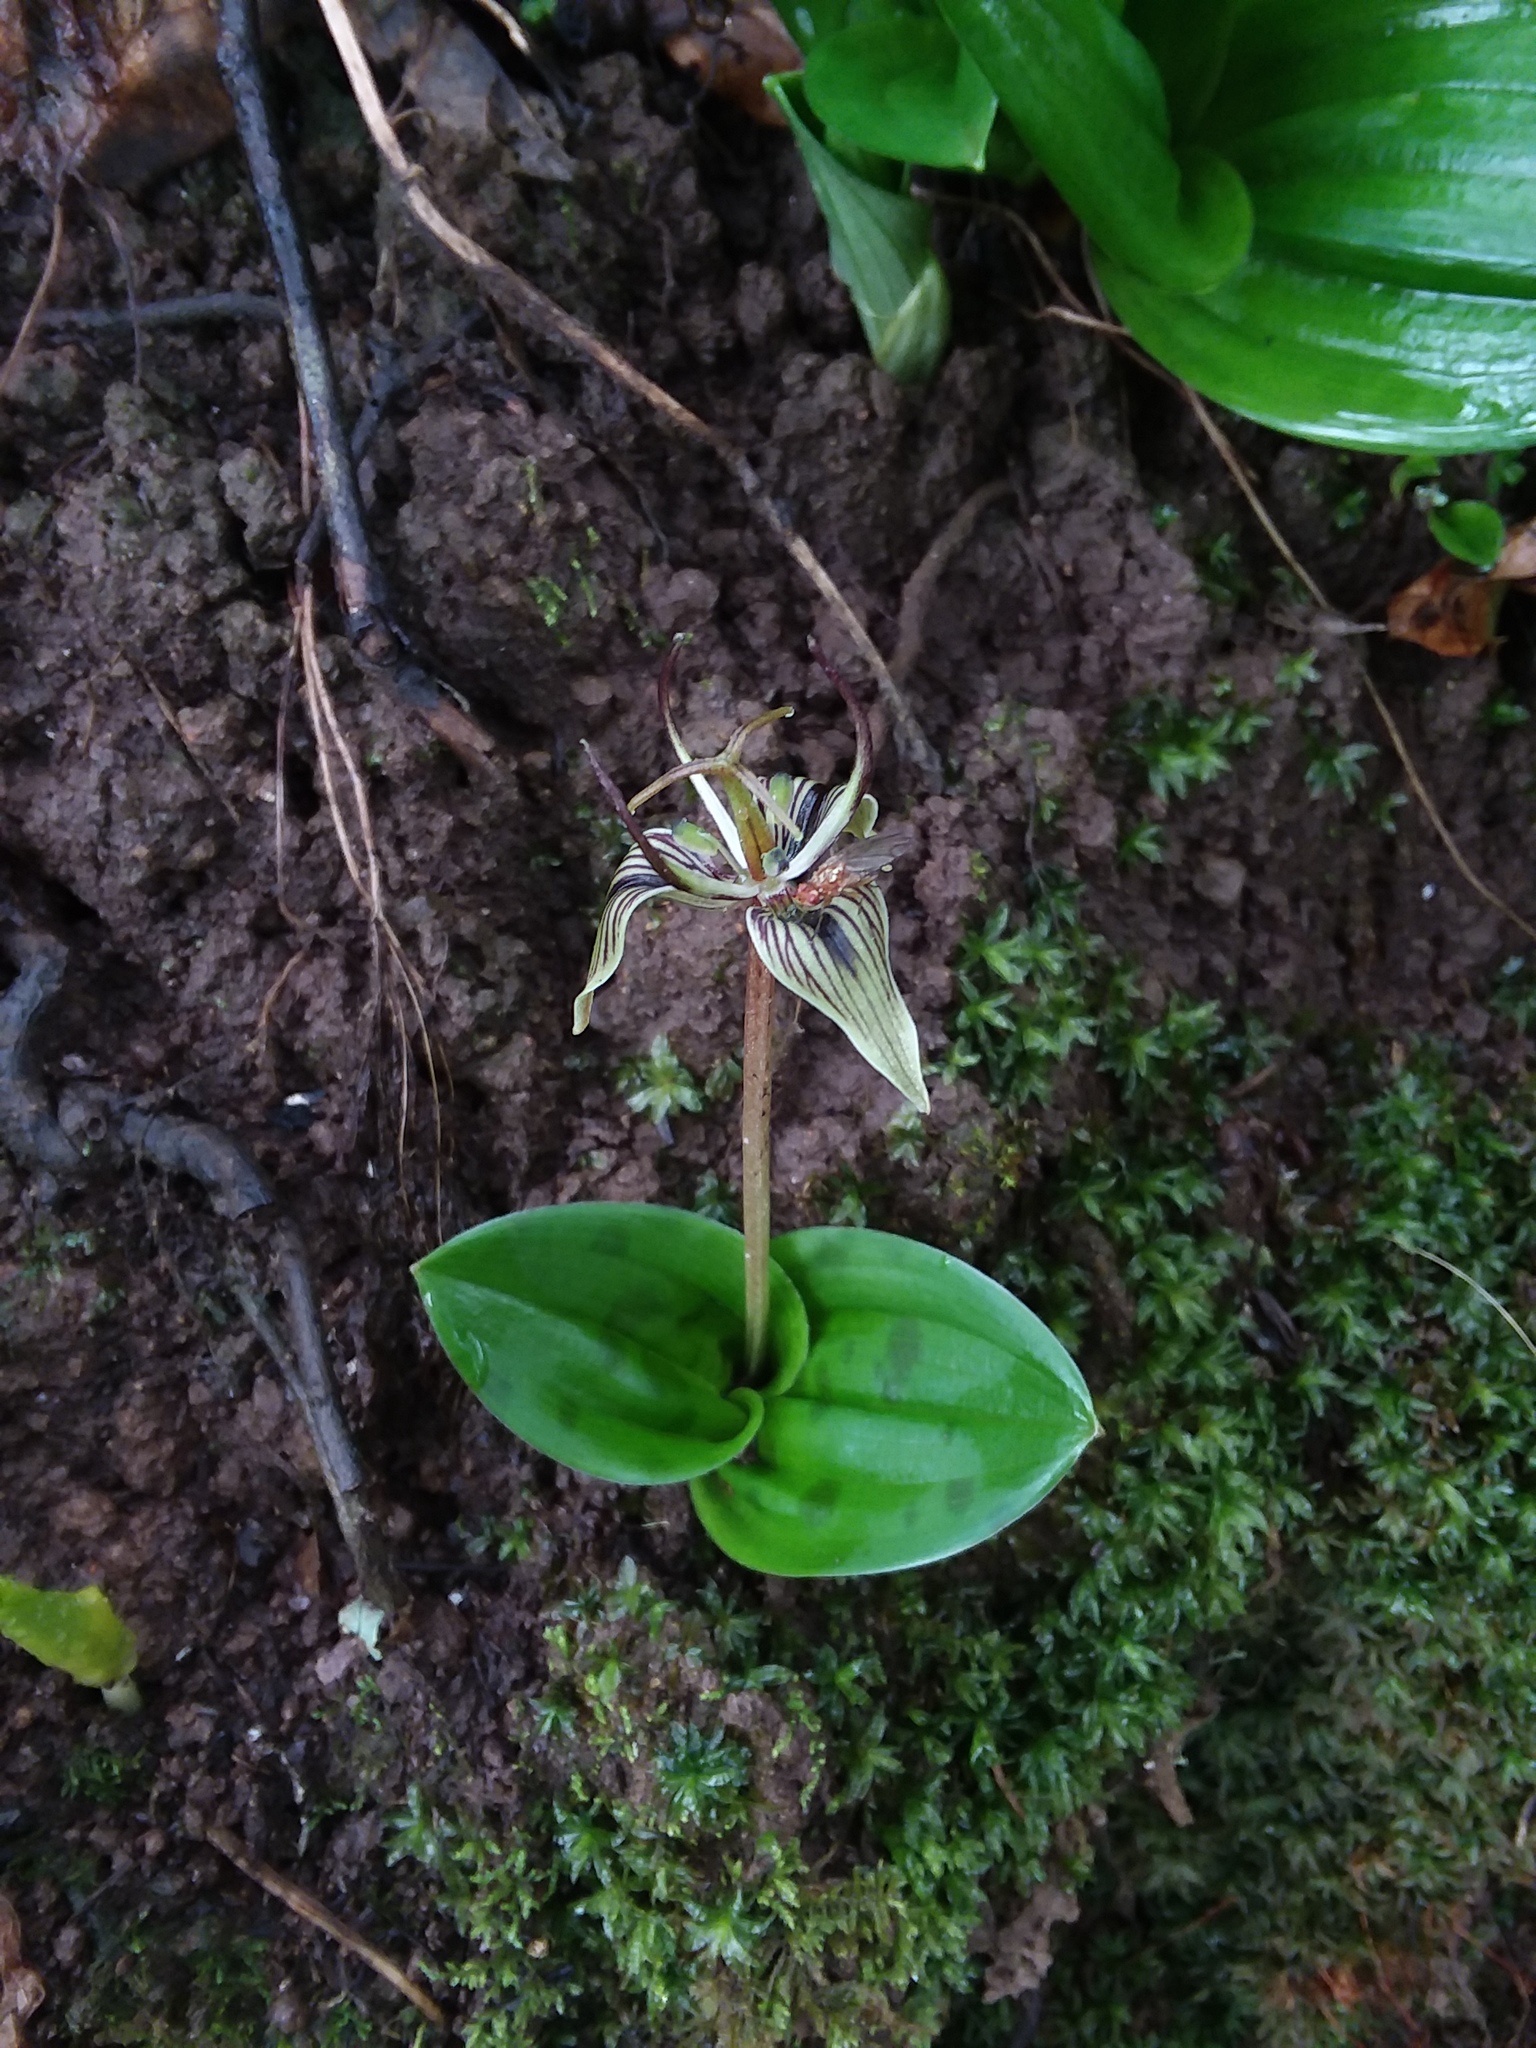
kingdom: Plantae
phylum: Tracheophyta
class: Liliopsida
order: Liliales
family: Liliaceae
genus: Scoliopus
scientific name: Scoliopus bigelovii
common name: Foetid adder's-tongue
